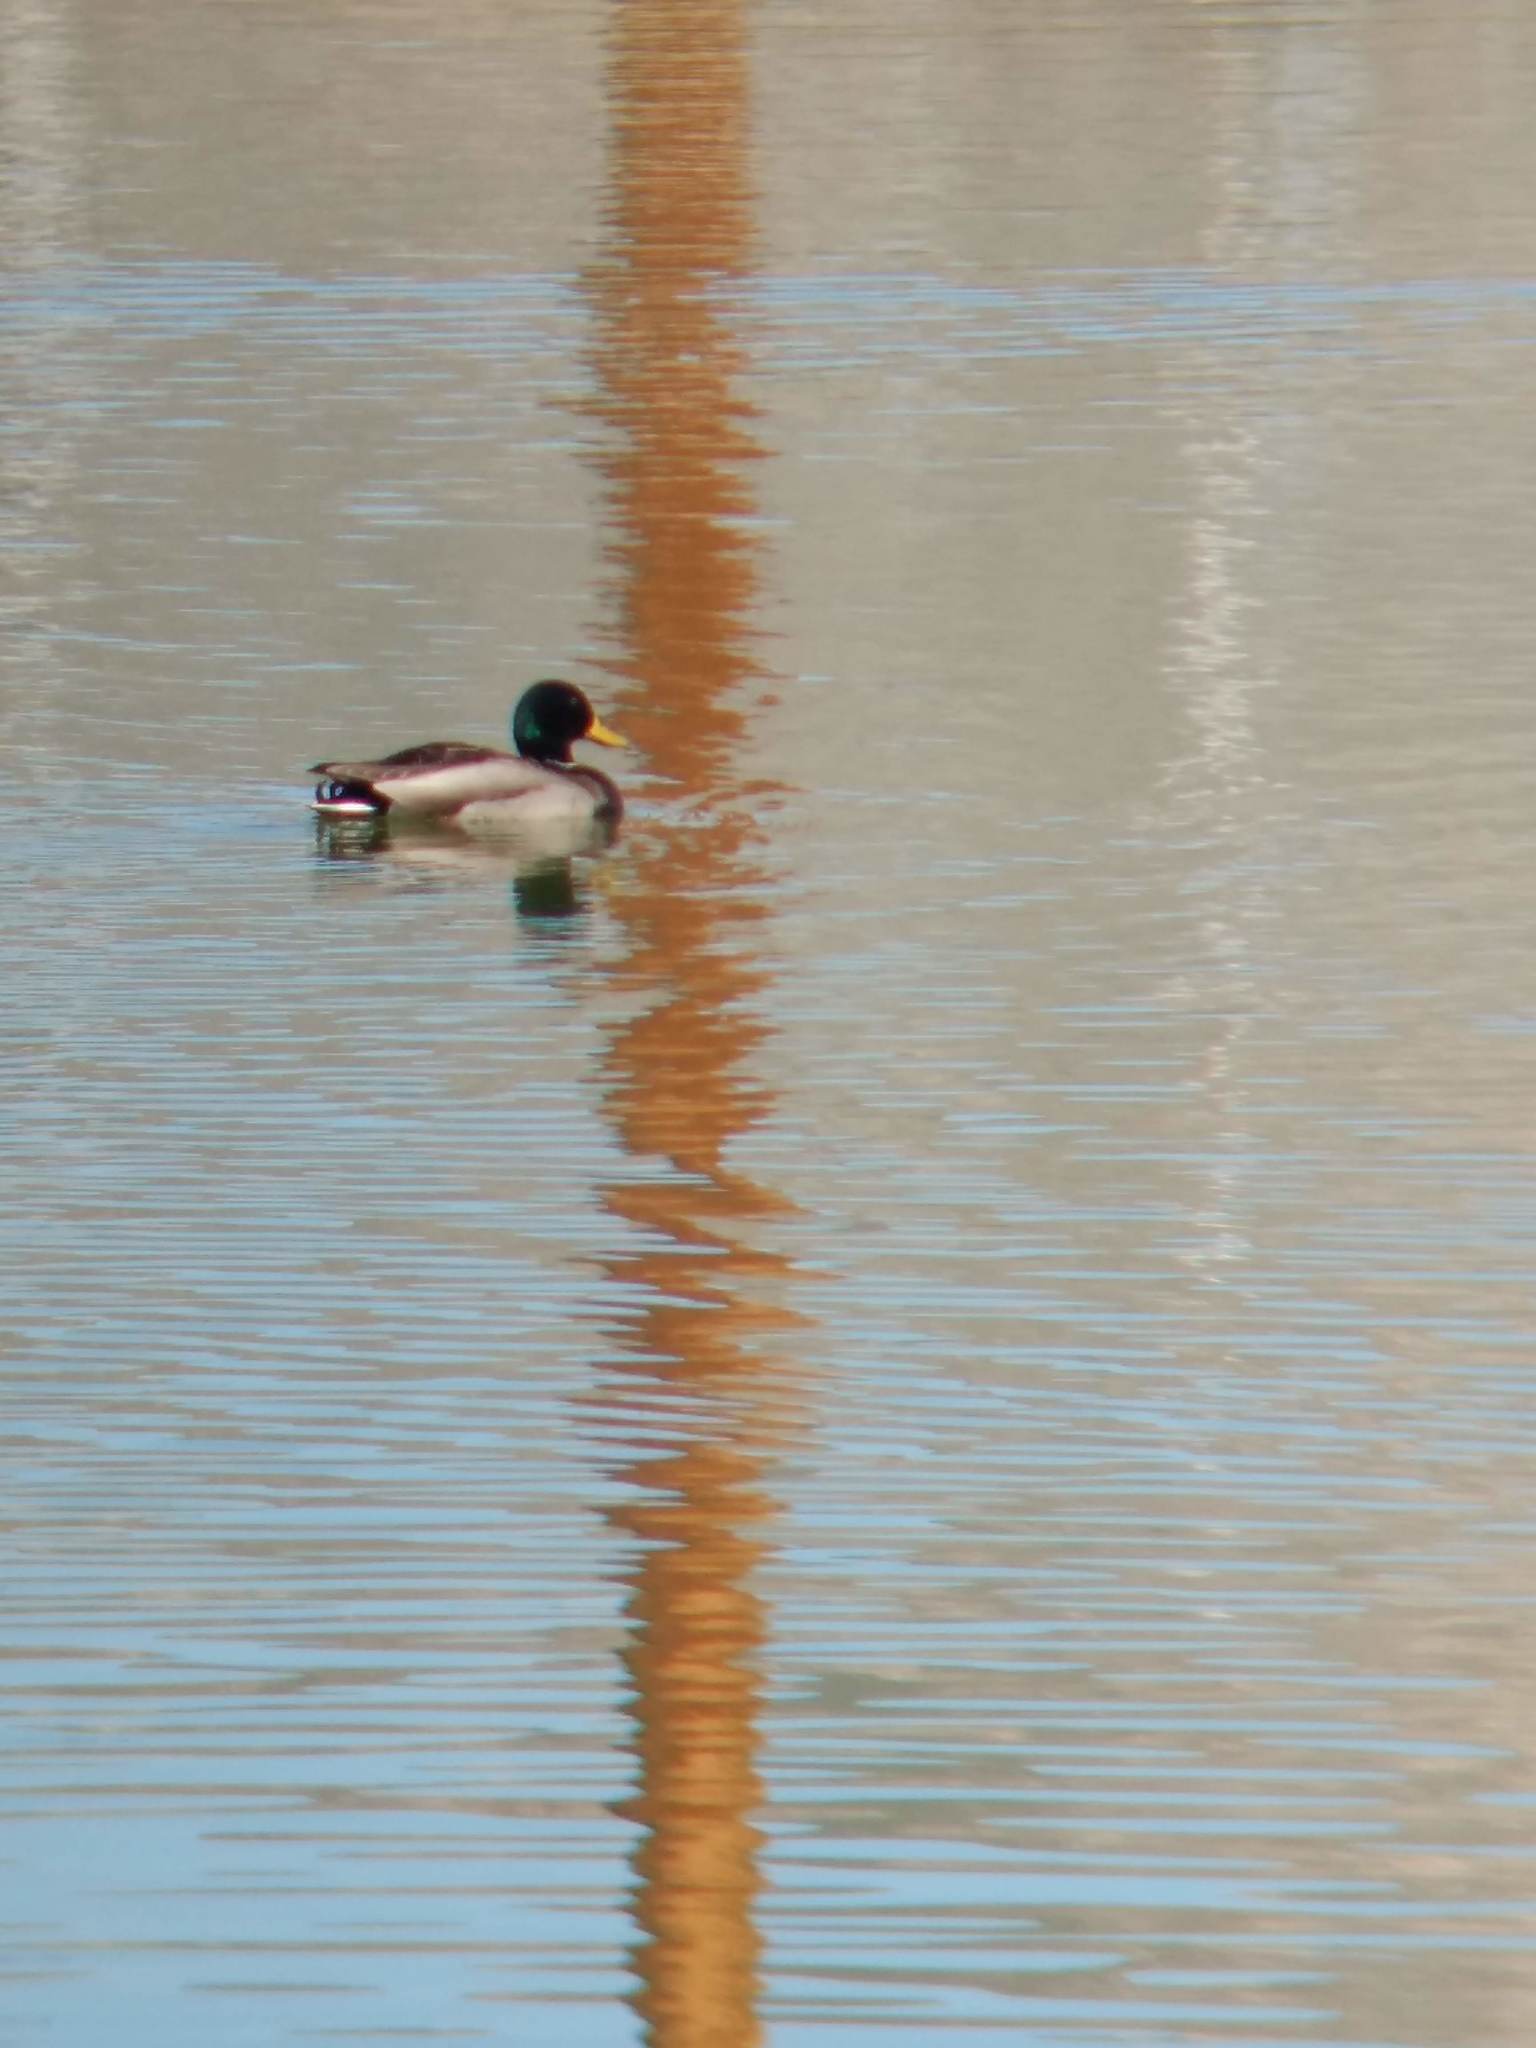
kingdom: Animalia
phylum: Chordata
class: Aves
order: Anseriformes
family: Anatidae
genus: Anas
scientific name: Anas platyrhynchos
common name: Mallard
